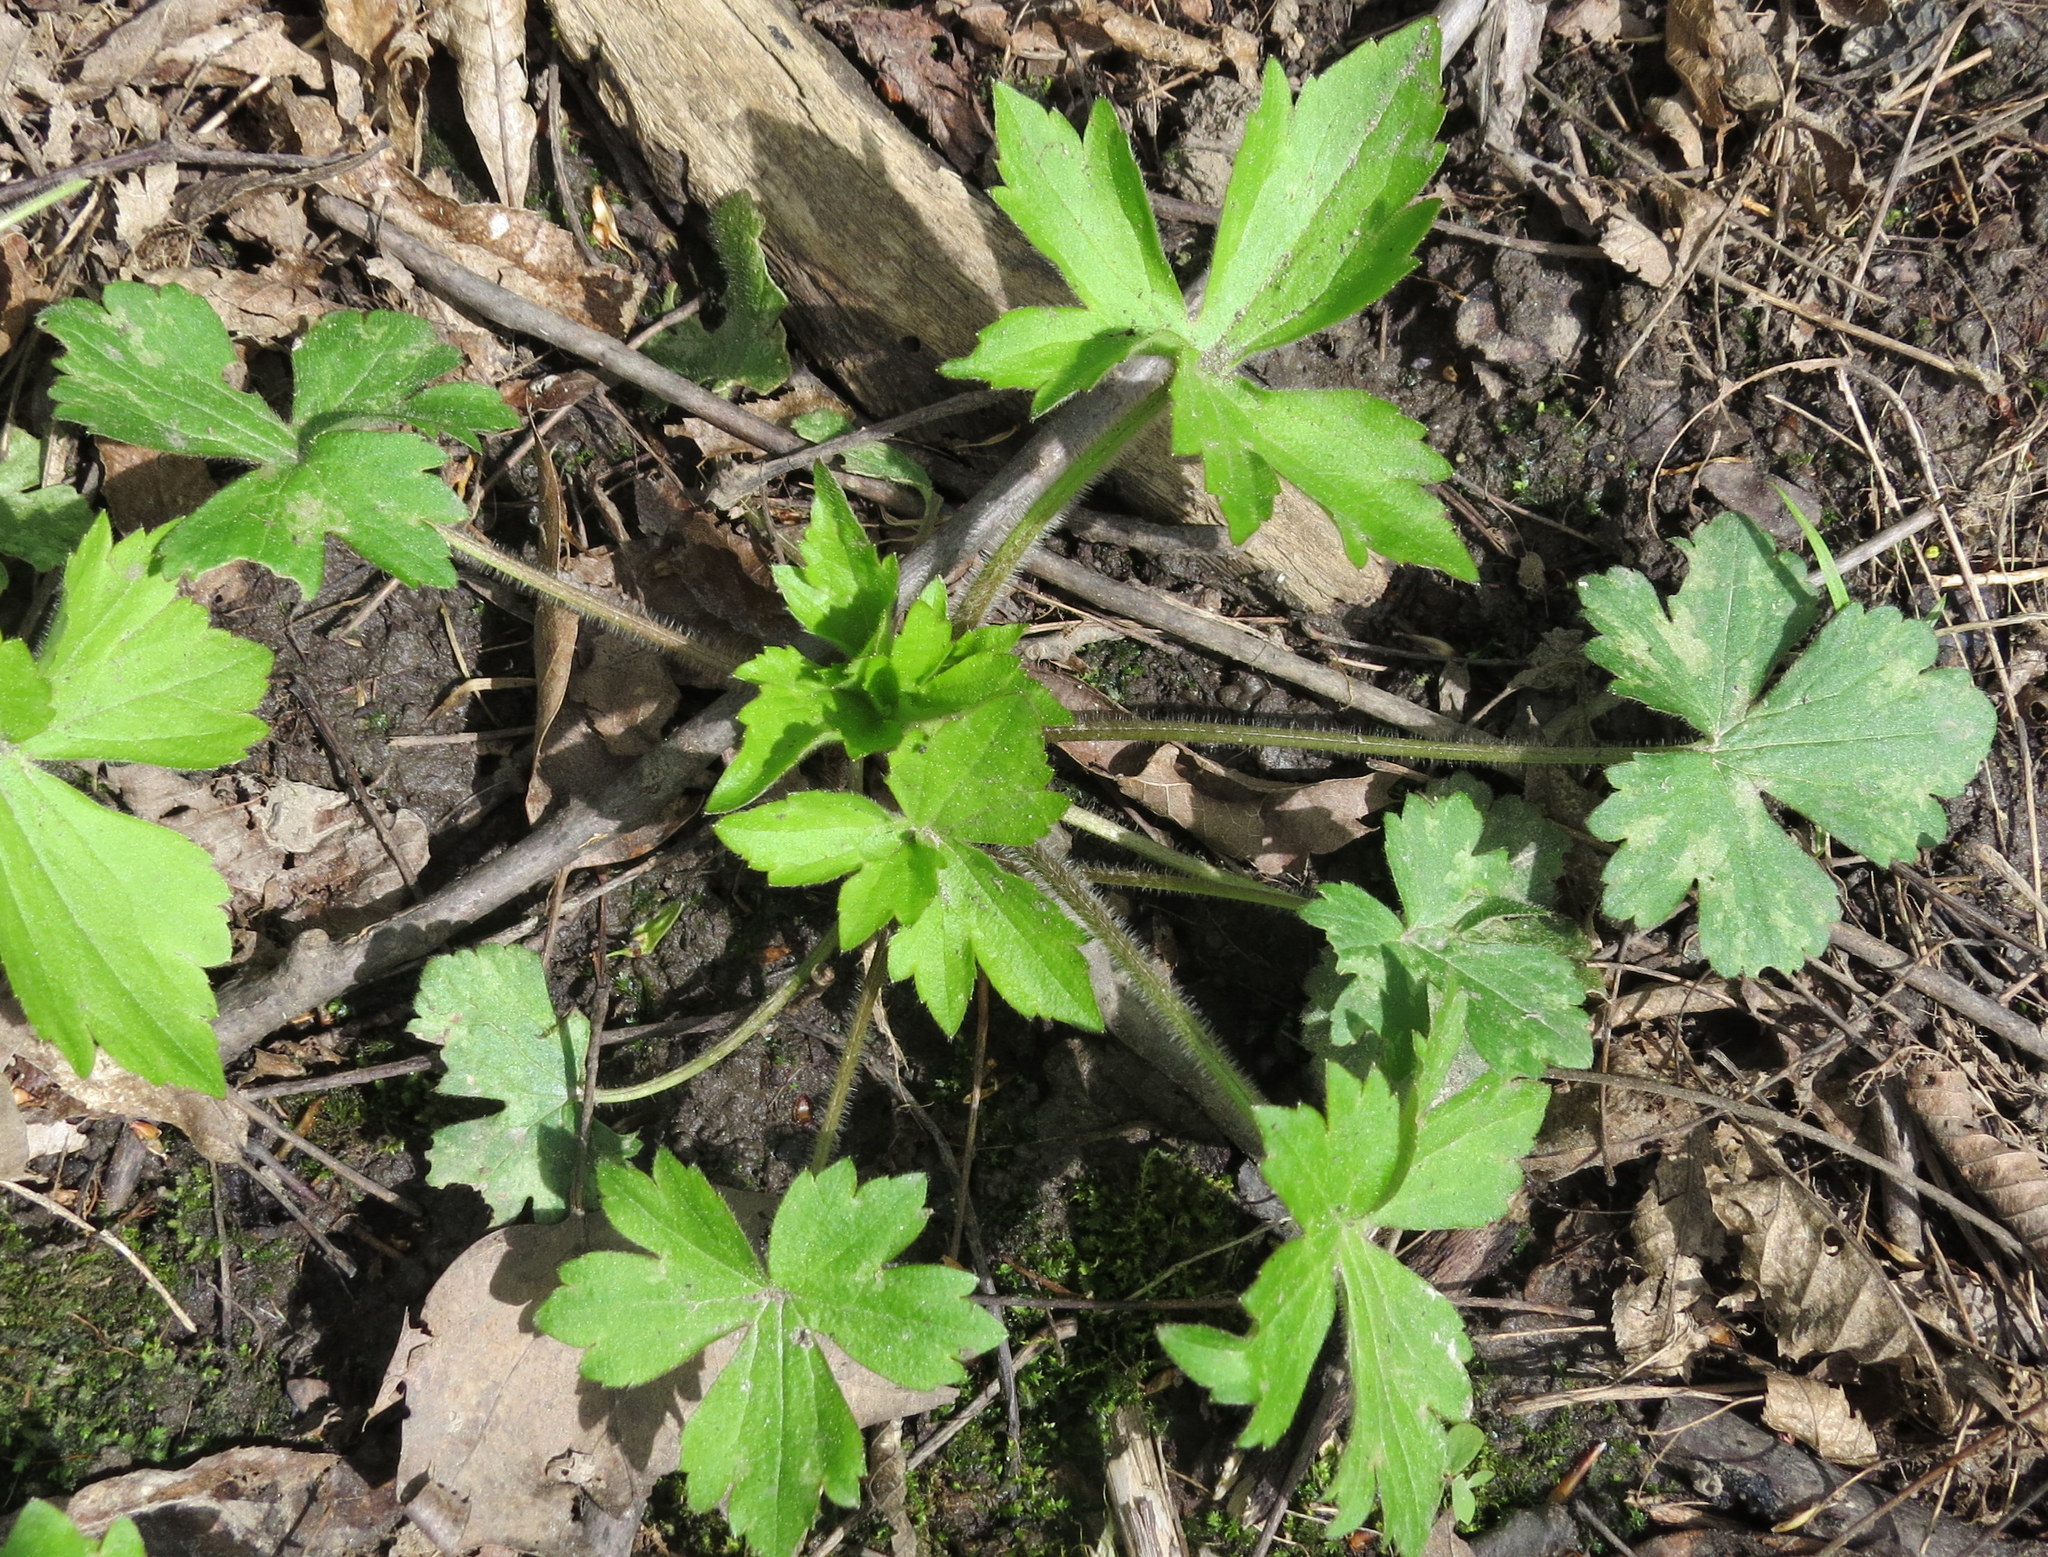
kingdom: Plantae
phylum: Tracheophyta
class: Magnoliopsida
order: Ranunculales
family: Ranunculaceae
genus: Ranunculus
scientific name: Ranunculus recurvatus
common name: Blisterwort
